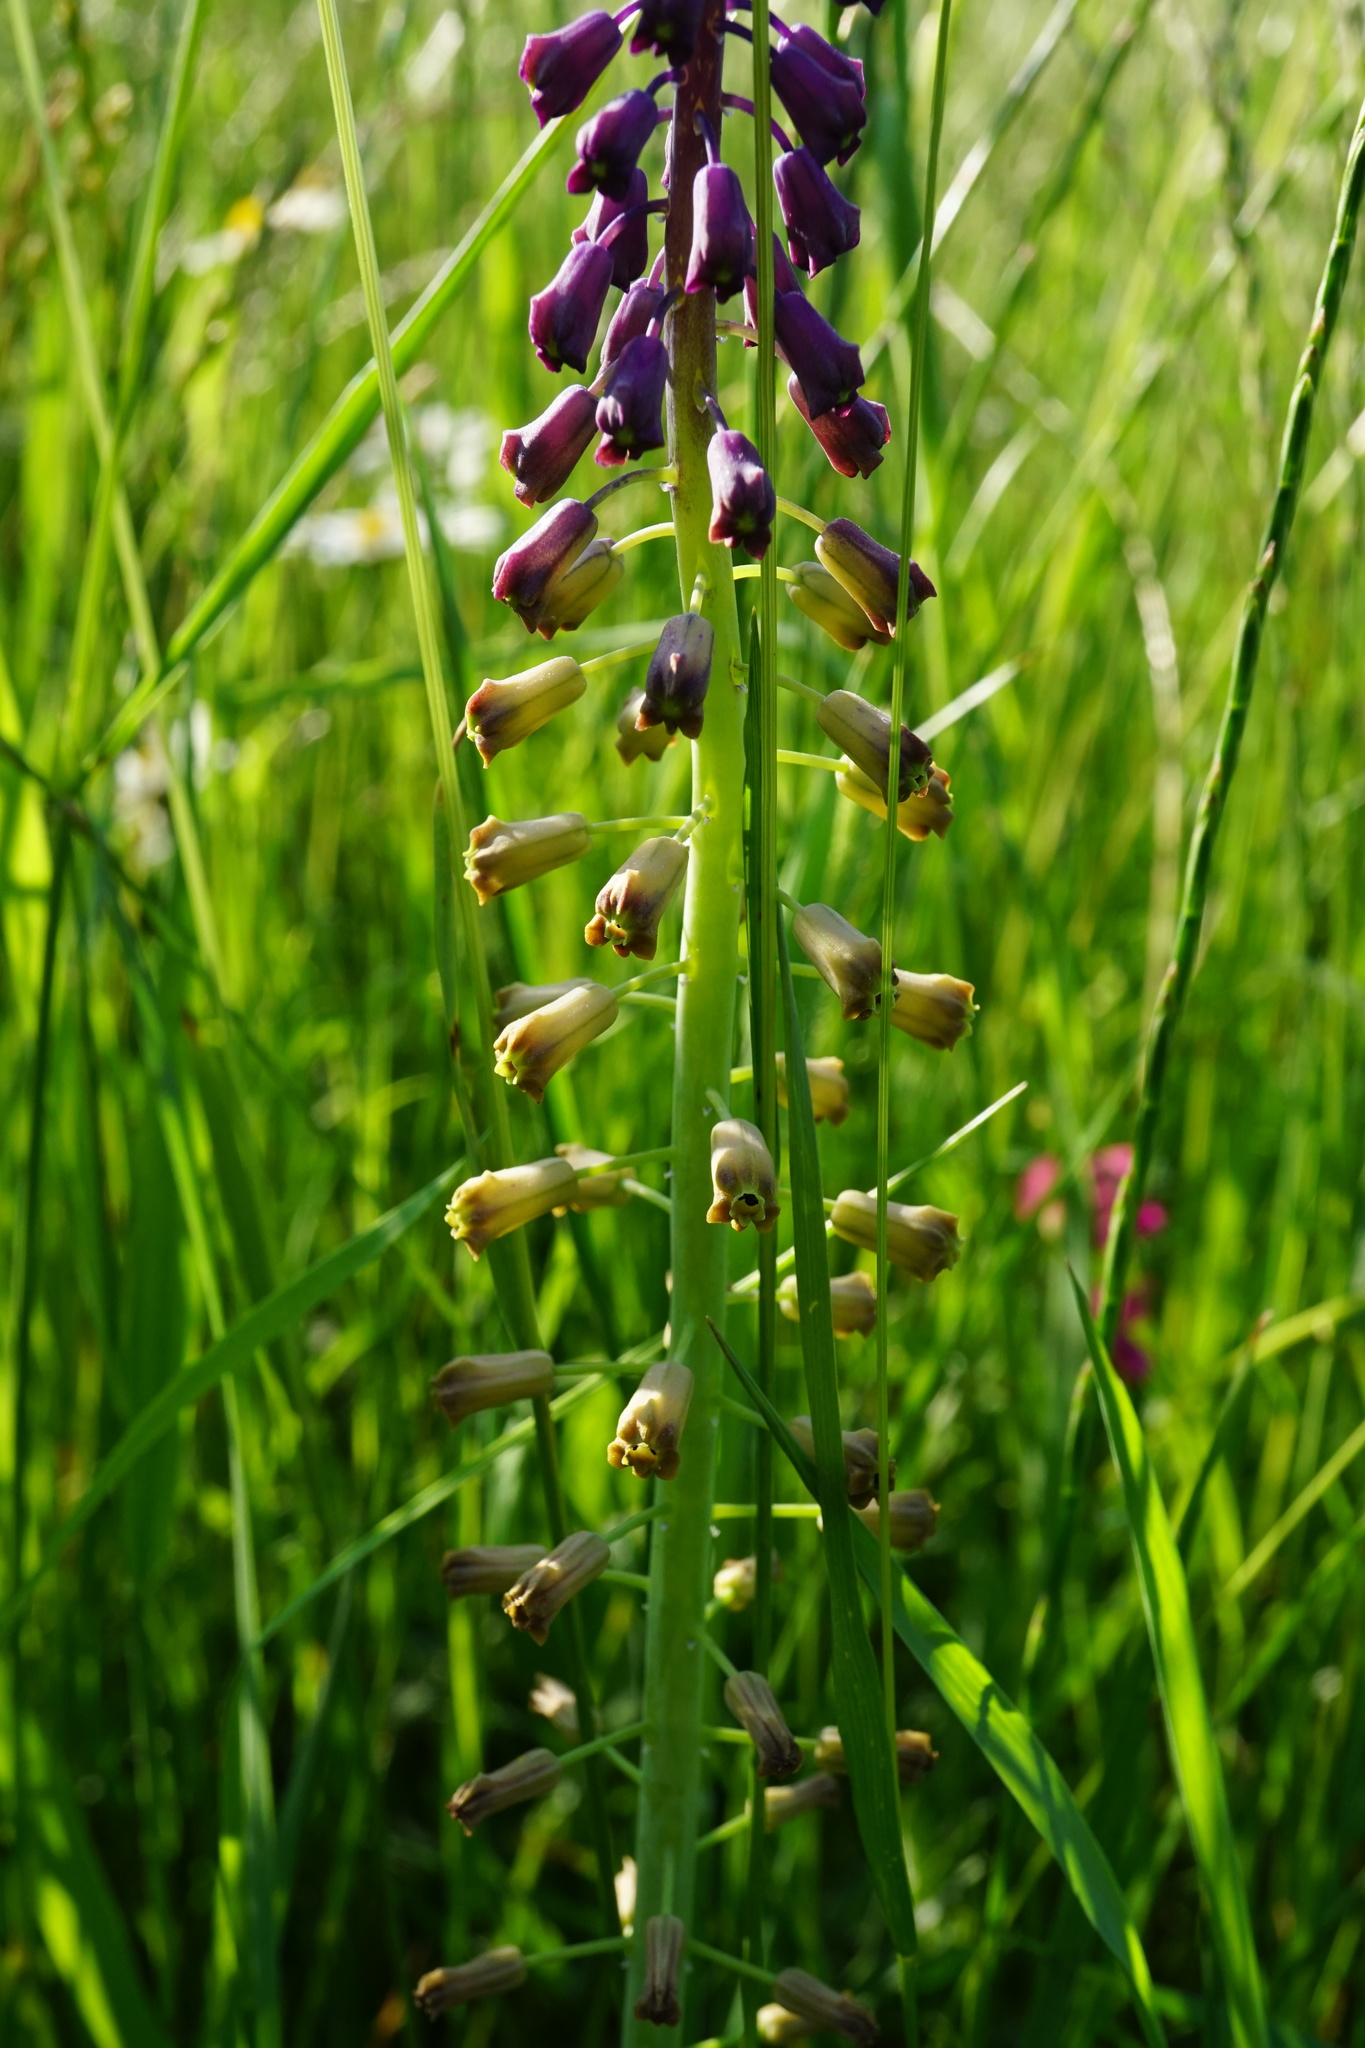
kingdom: Plantae
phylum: Tracheophyta
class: Liliopsida
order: Asparagales
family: Asparagaceae
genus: Muscari
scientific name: Muscari comosum
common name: Tassel hyacinth
